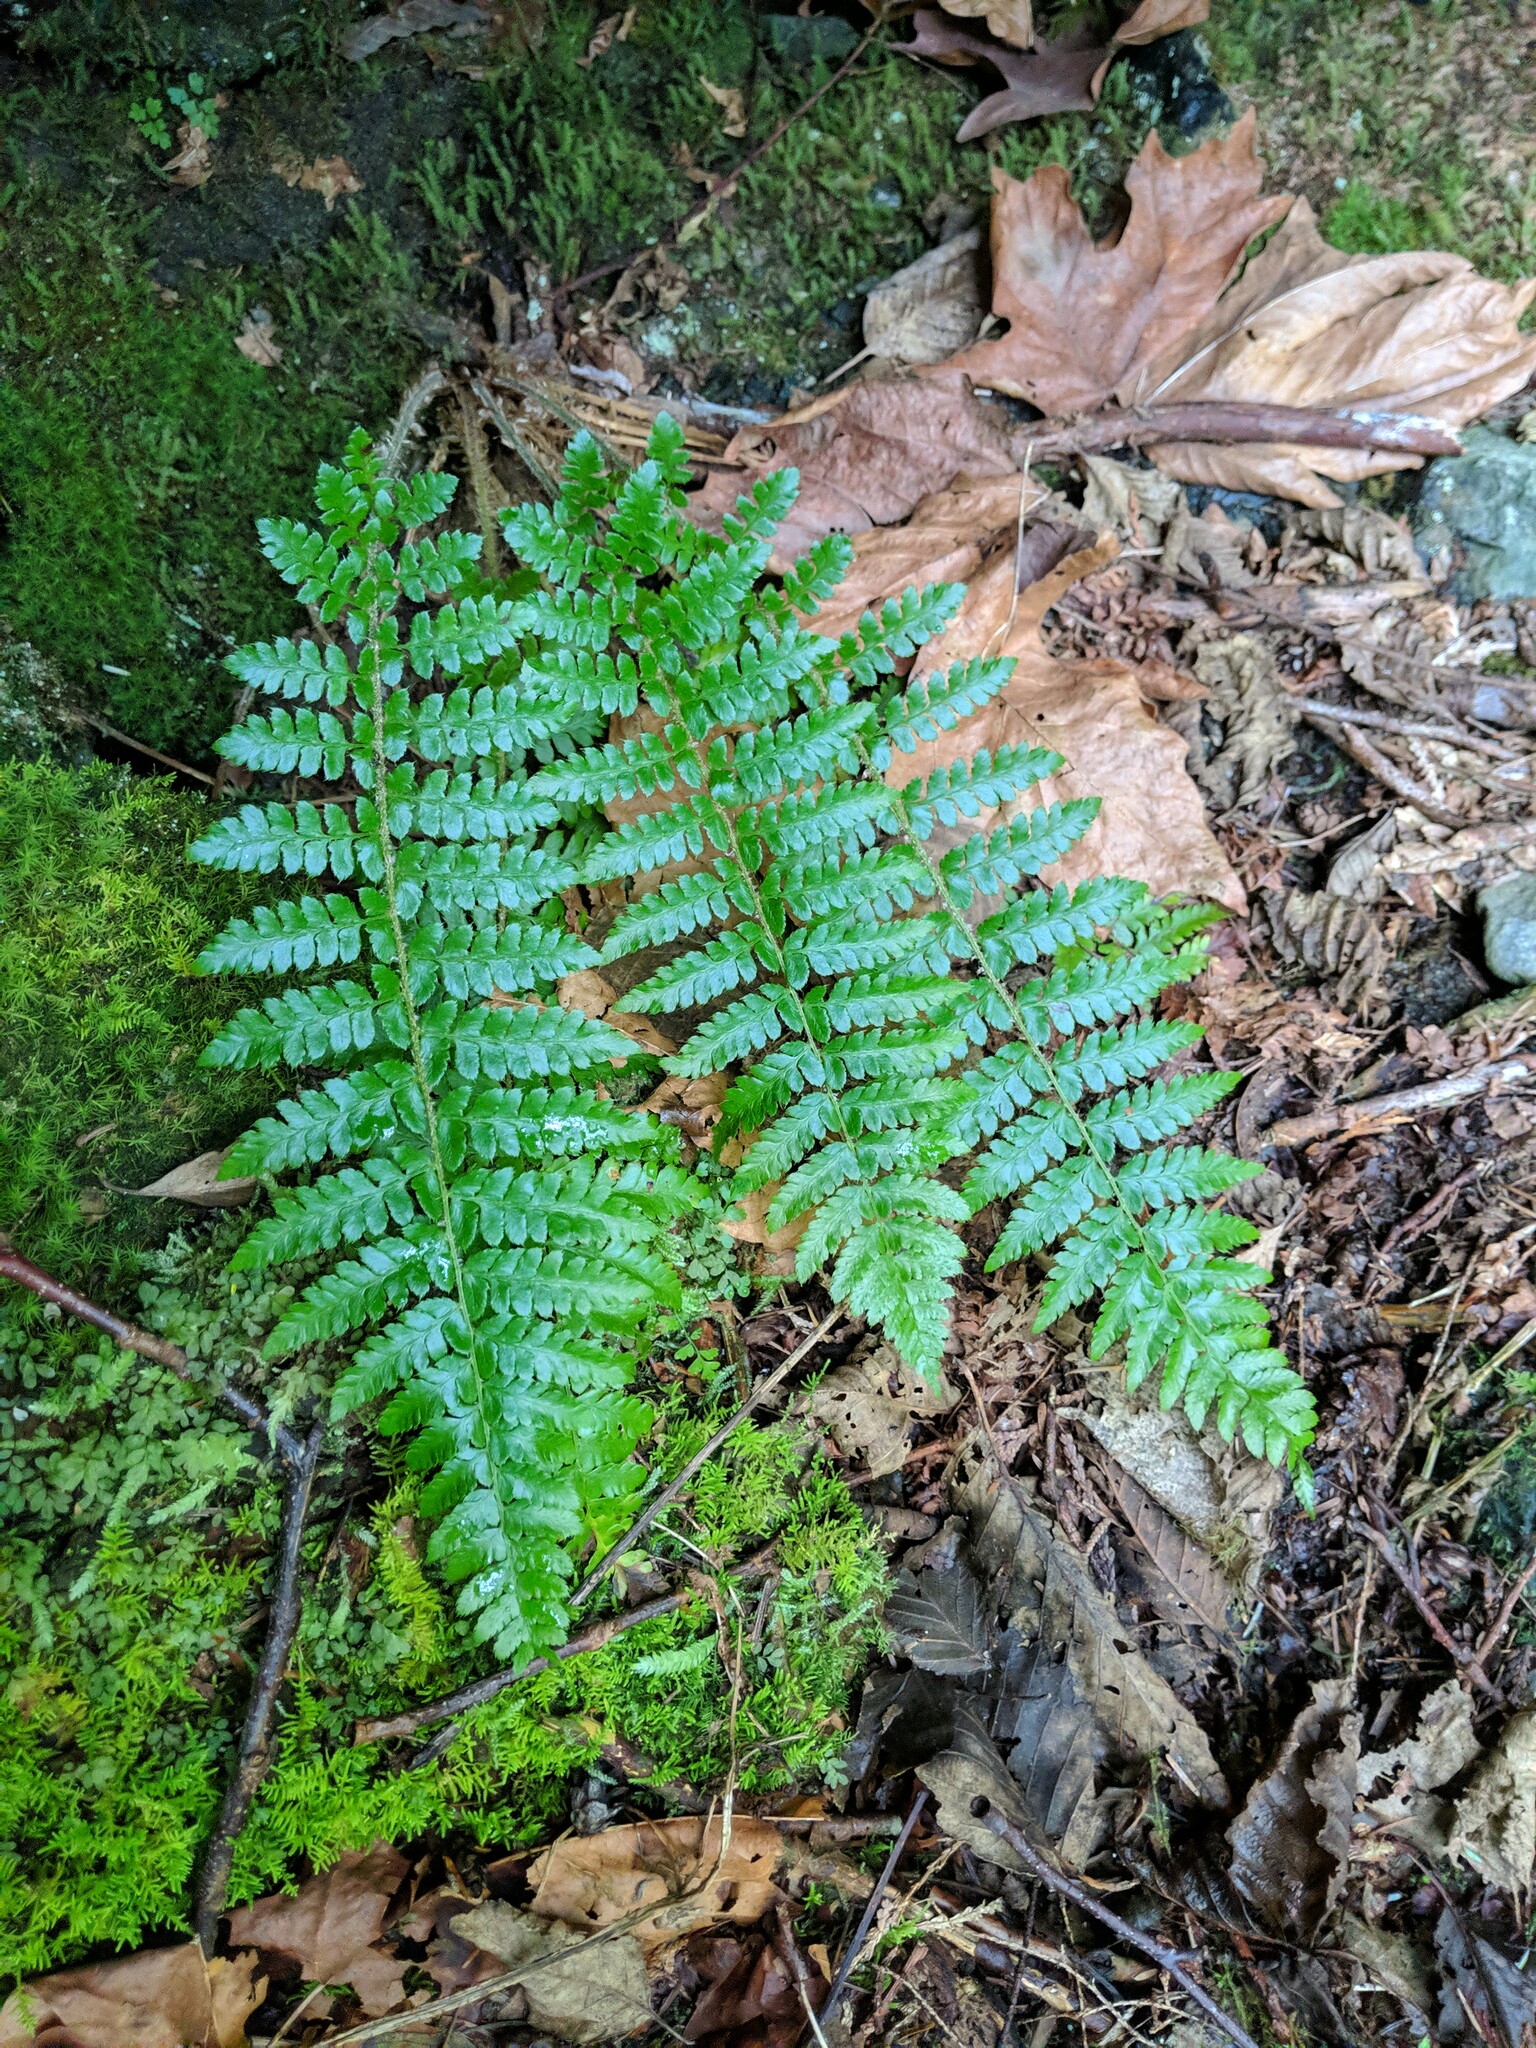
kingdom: Plantae
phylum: Tracheophyta
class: Polypodiopsida
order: Polypodiales
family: Dryopteridaceae
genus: Polystichum
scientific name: Polystichum braunii
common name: Braun's holly fern
